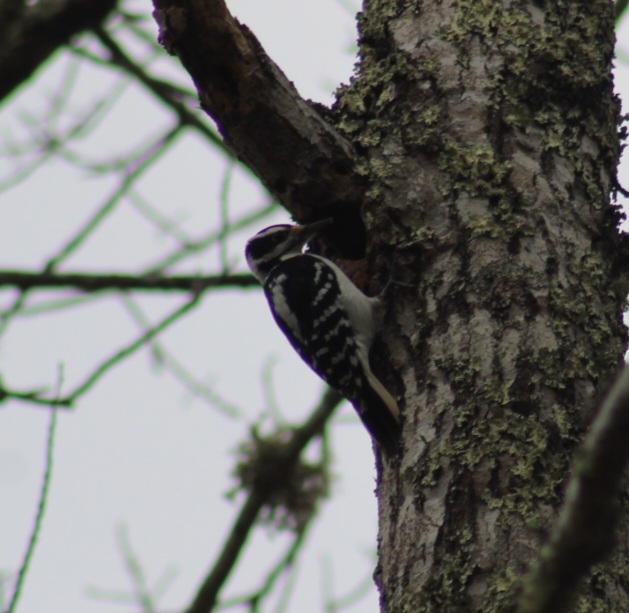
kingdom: Animalia
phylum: Chordata
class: Aves
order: Piciformes
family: Picidae
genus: Leuconotopicus
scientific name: Leuconotopicus villosus
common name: Hairy woodpecker
